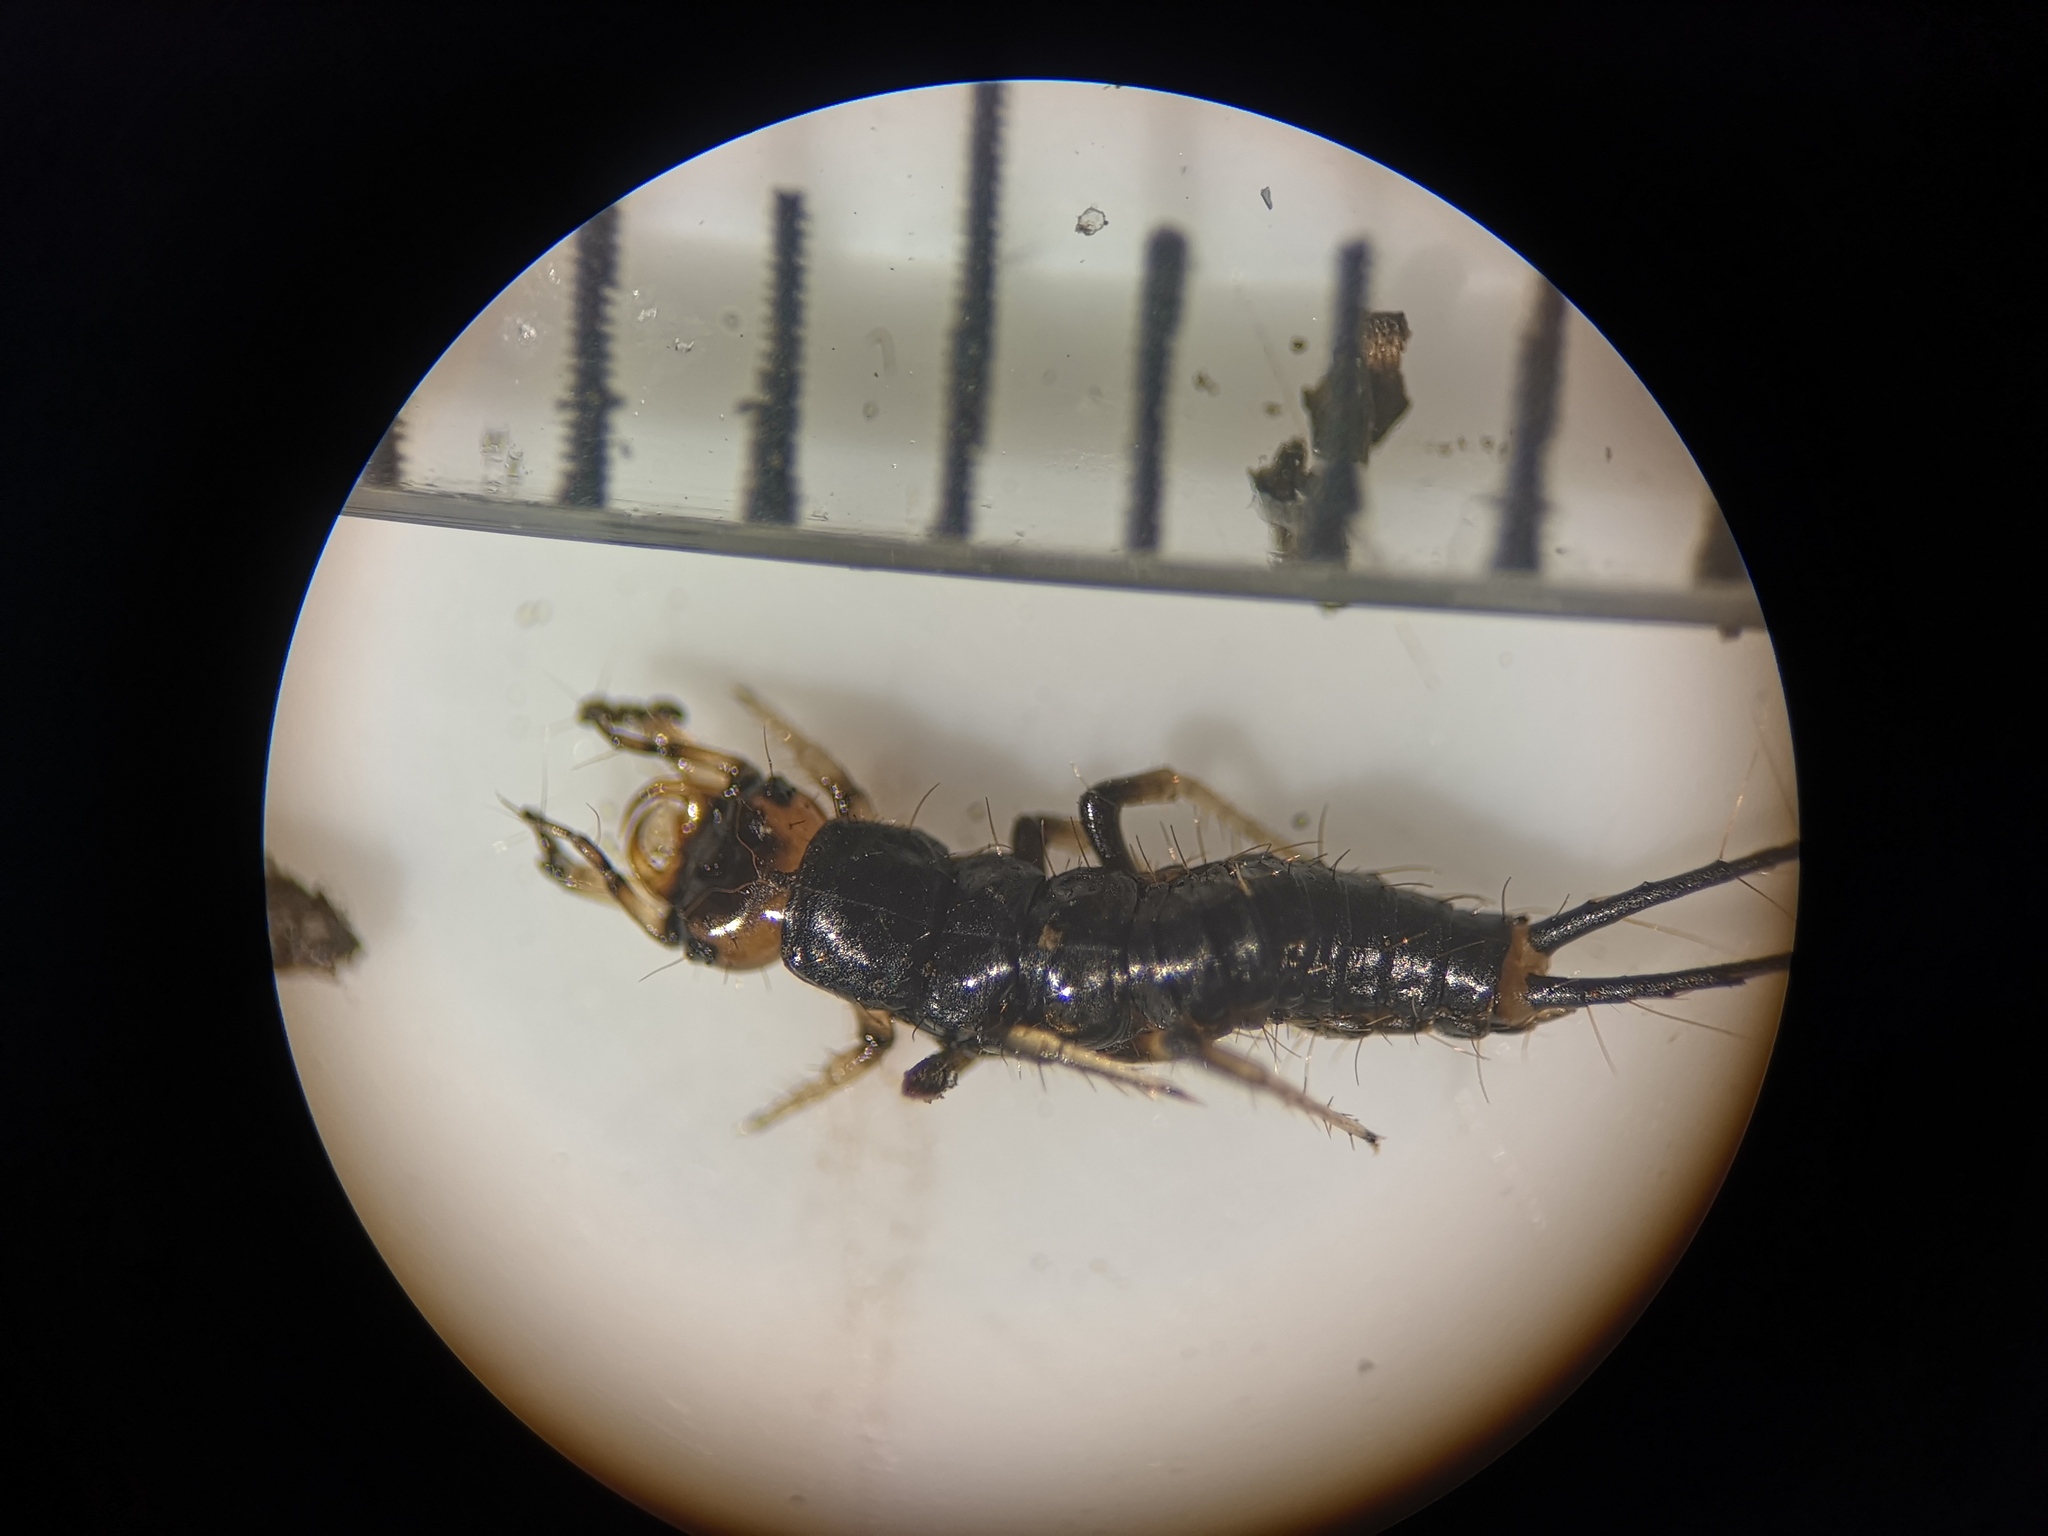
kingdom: Animalia
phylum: Arthropoda
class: Insecta
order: Coleoptera
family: Carabidae
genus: Loricera
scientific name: Loricera pilicornis
